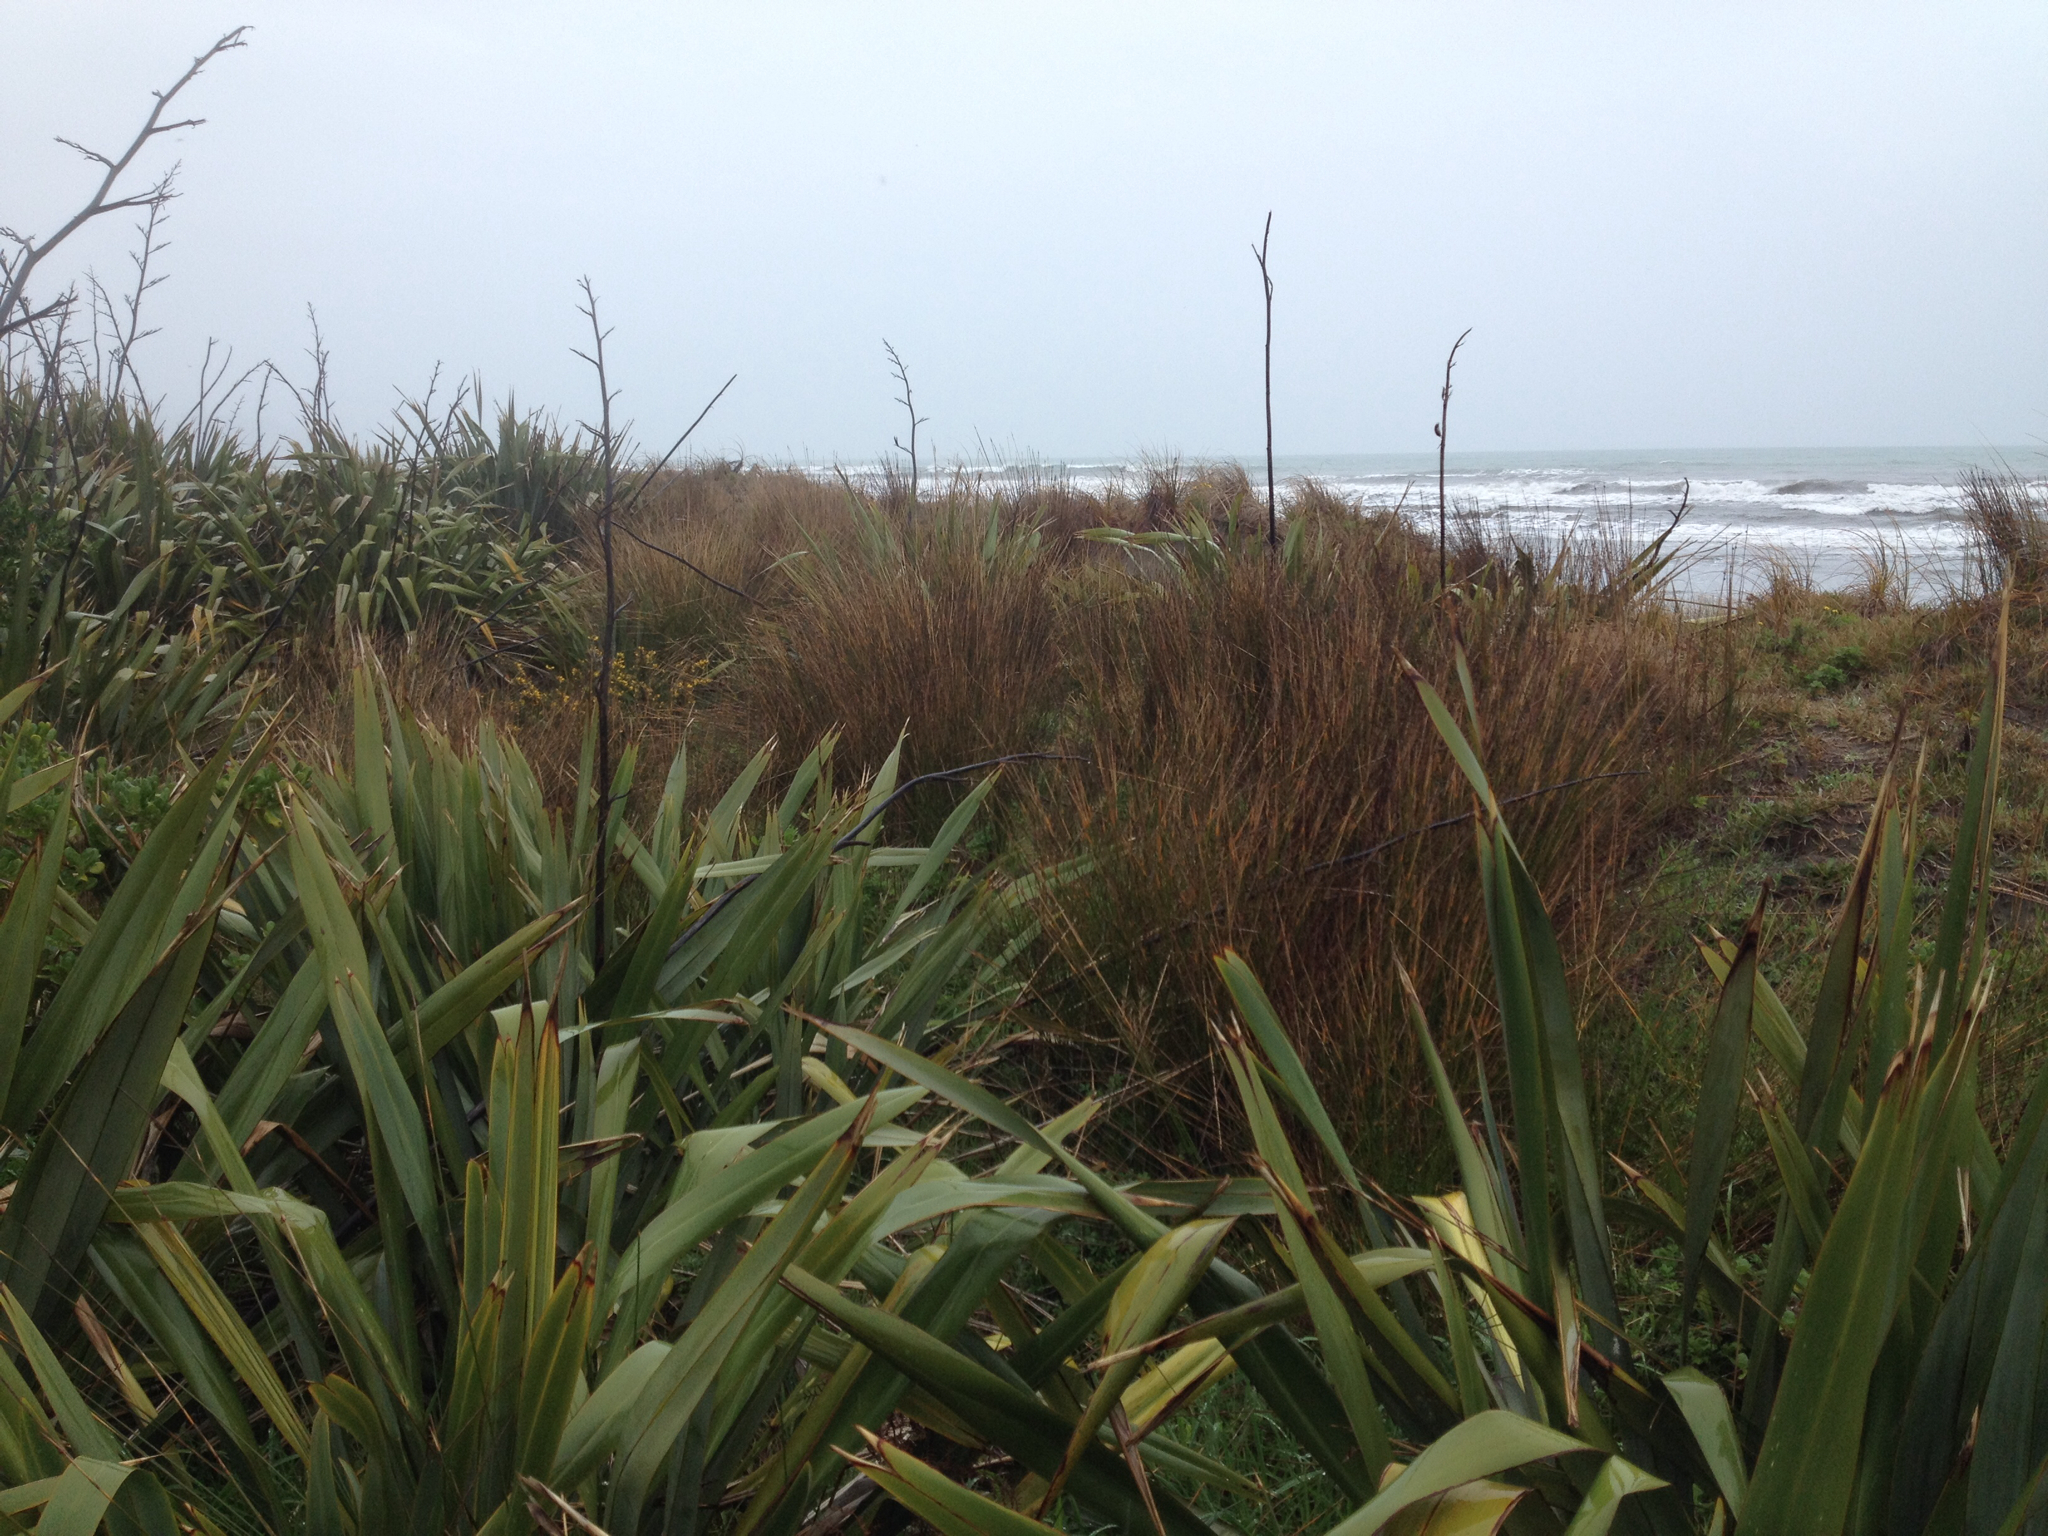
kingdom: Plantae
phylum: Tracheophyta
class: Liliopsida
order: Poales
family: Cyperaceae
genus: Ficinia
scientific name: Ficinia nodosa
